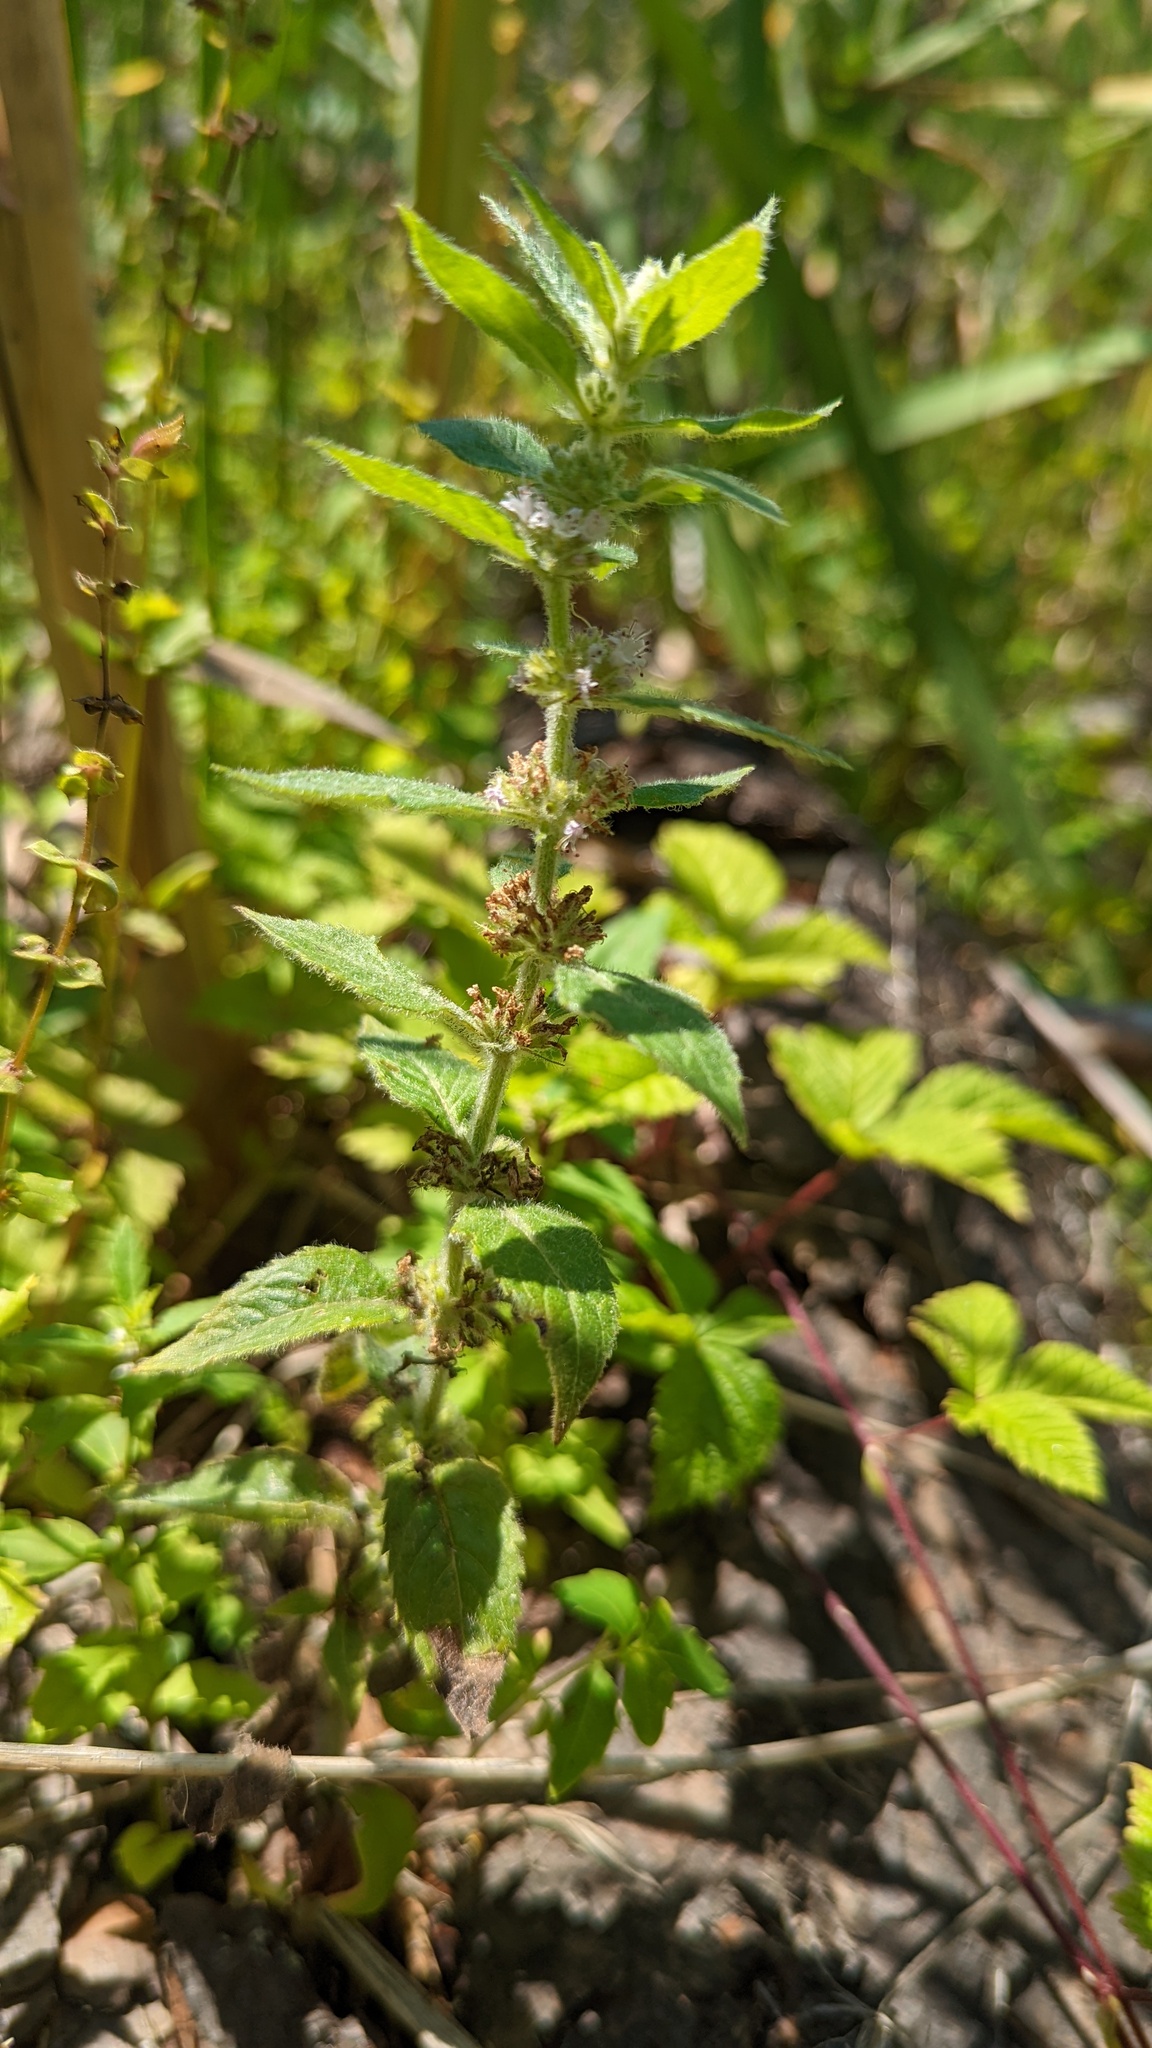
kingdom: Plantae
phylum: Tracheophyta
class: Magnoliopsida
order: Lamiales
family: Lamiaceae
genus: Mentha
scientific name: Mentha canadensis
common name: American corn mint
